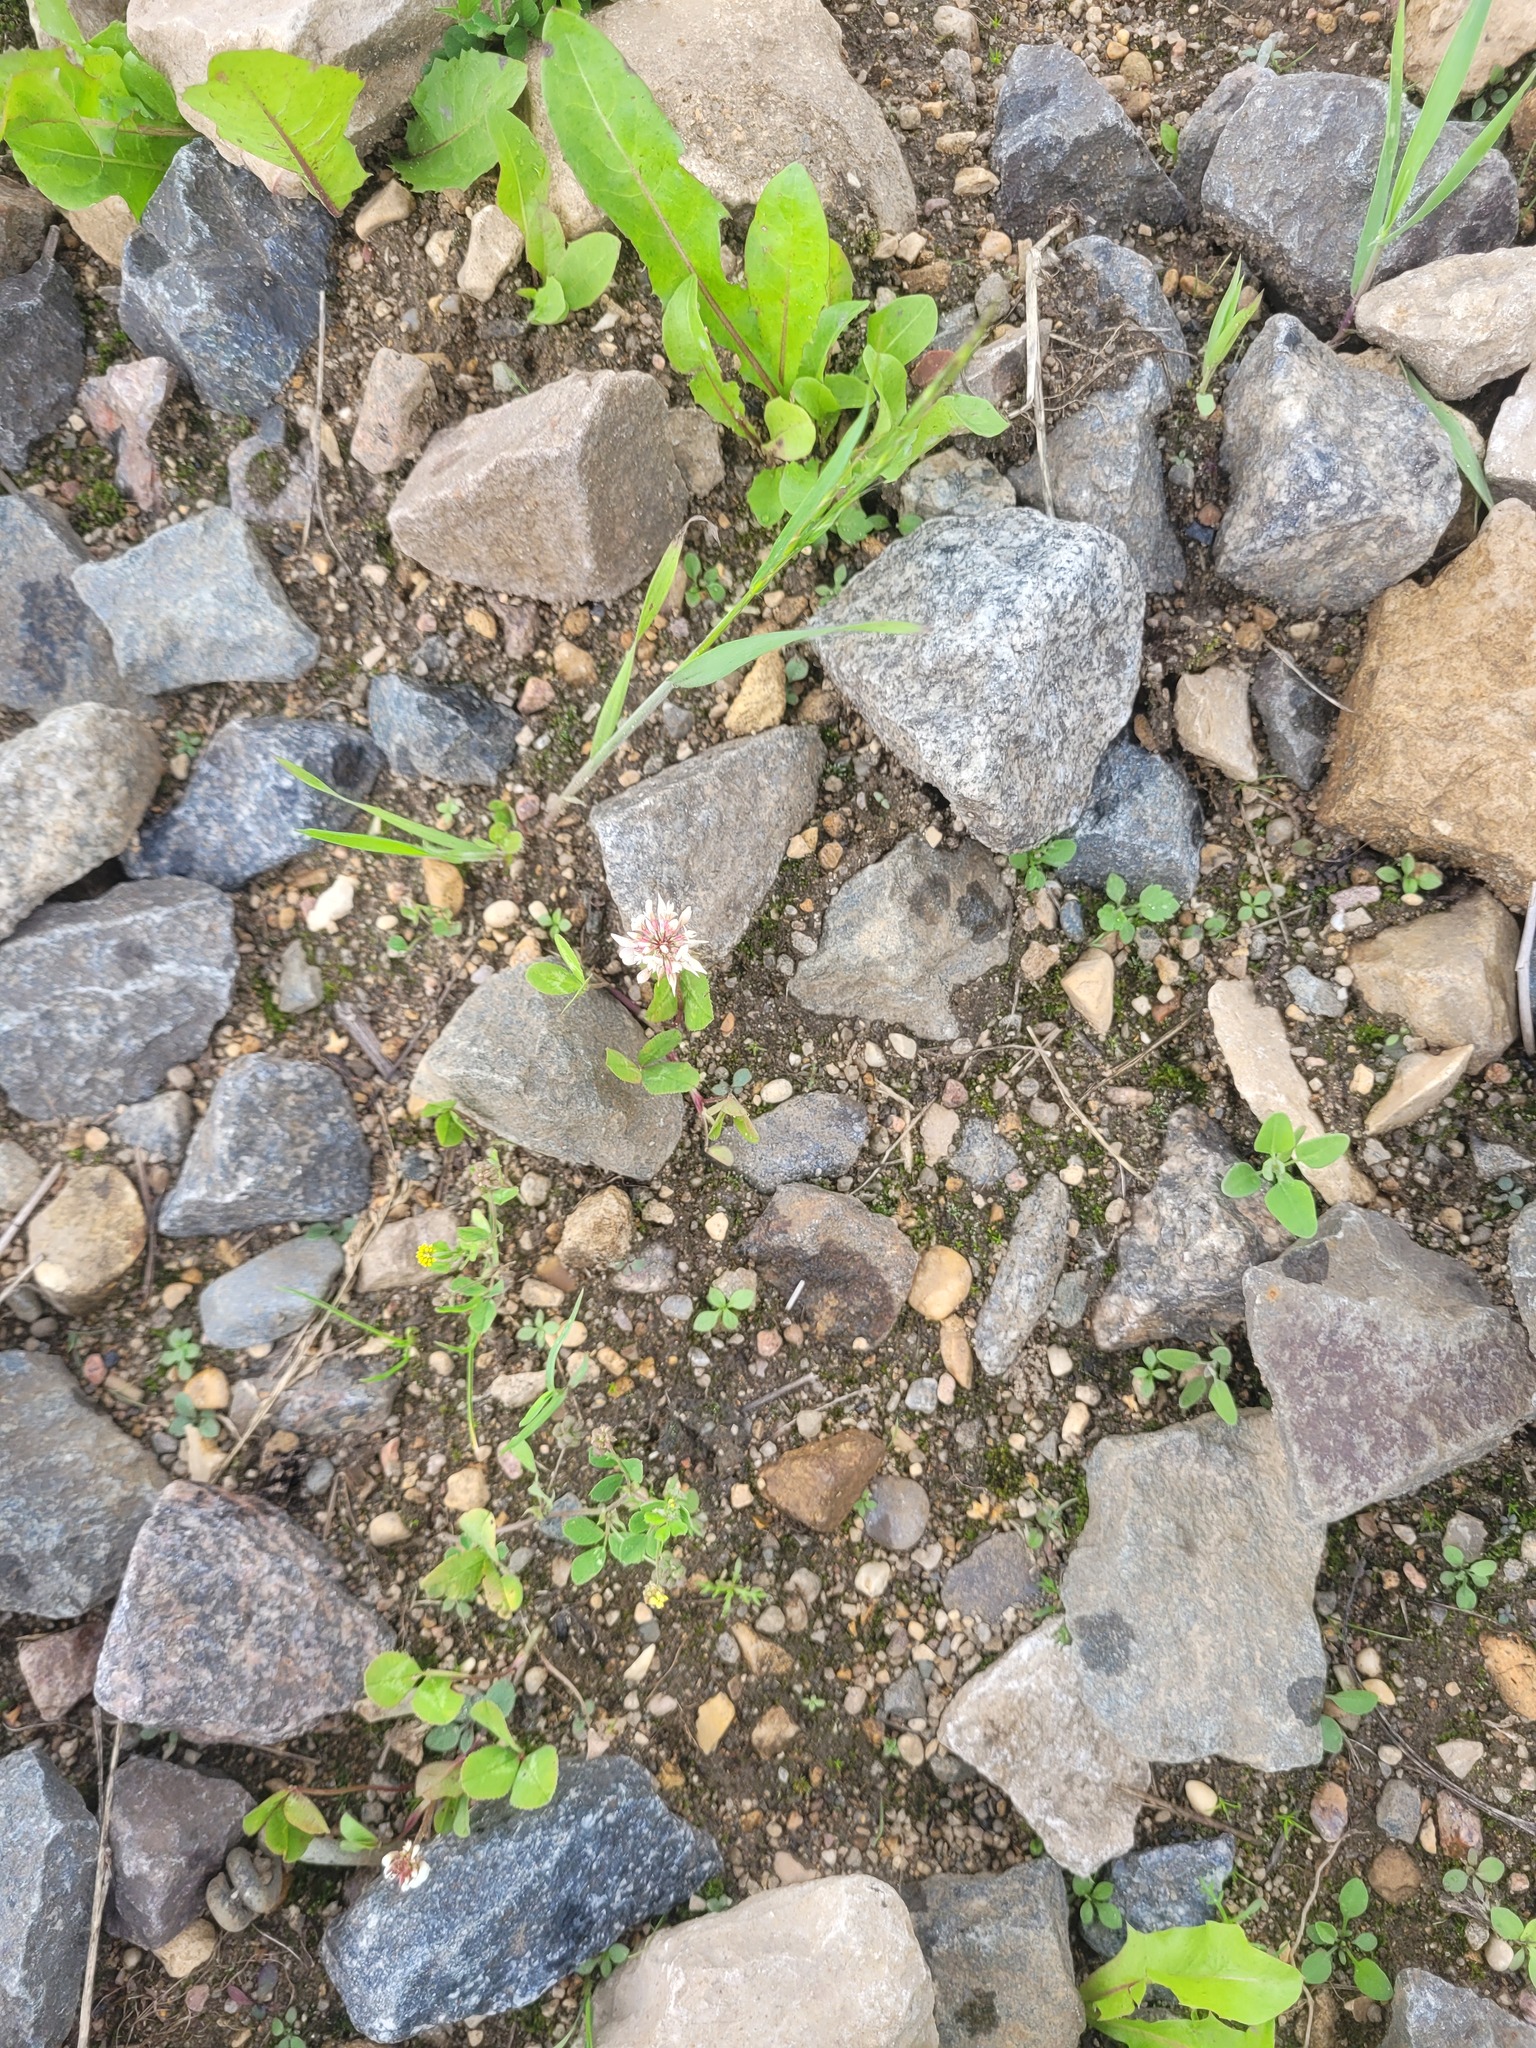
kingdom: Plantae
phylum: Tracheophyta
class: Magnoliopsida
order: Fabales
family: Fabaceae
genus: Trifolium
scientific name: Trifolium repens
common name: White clover
